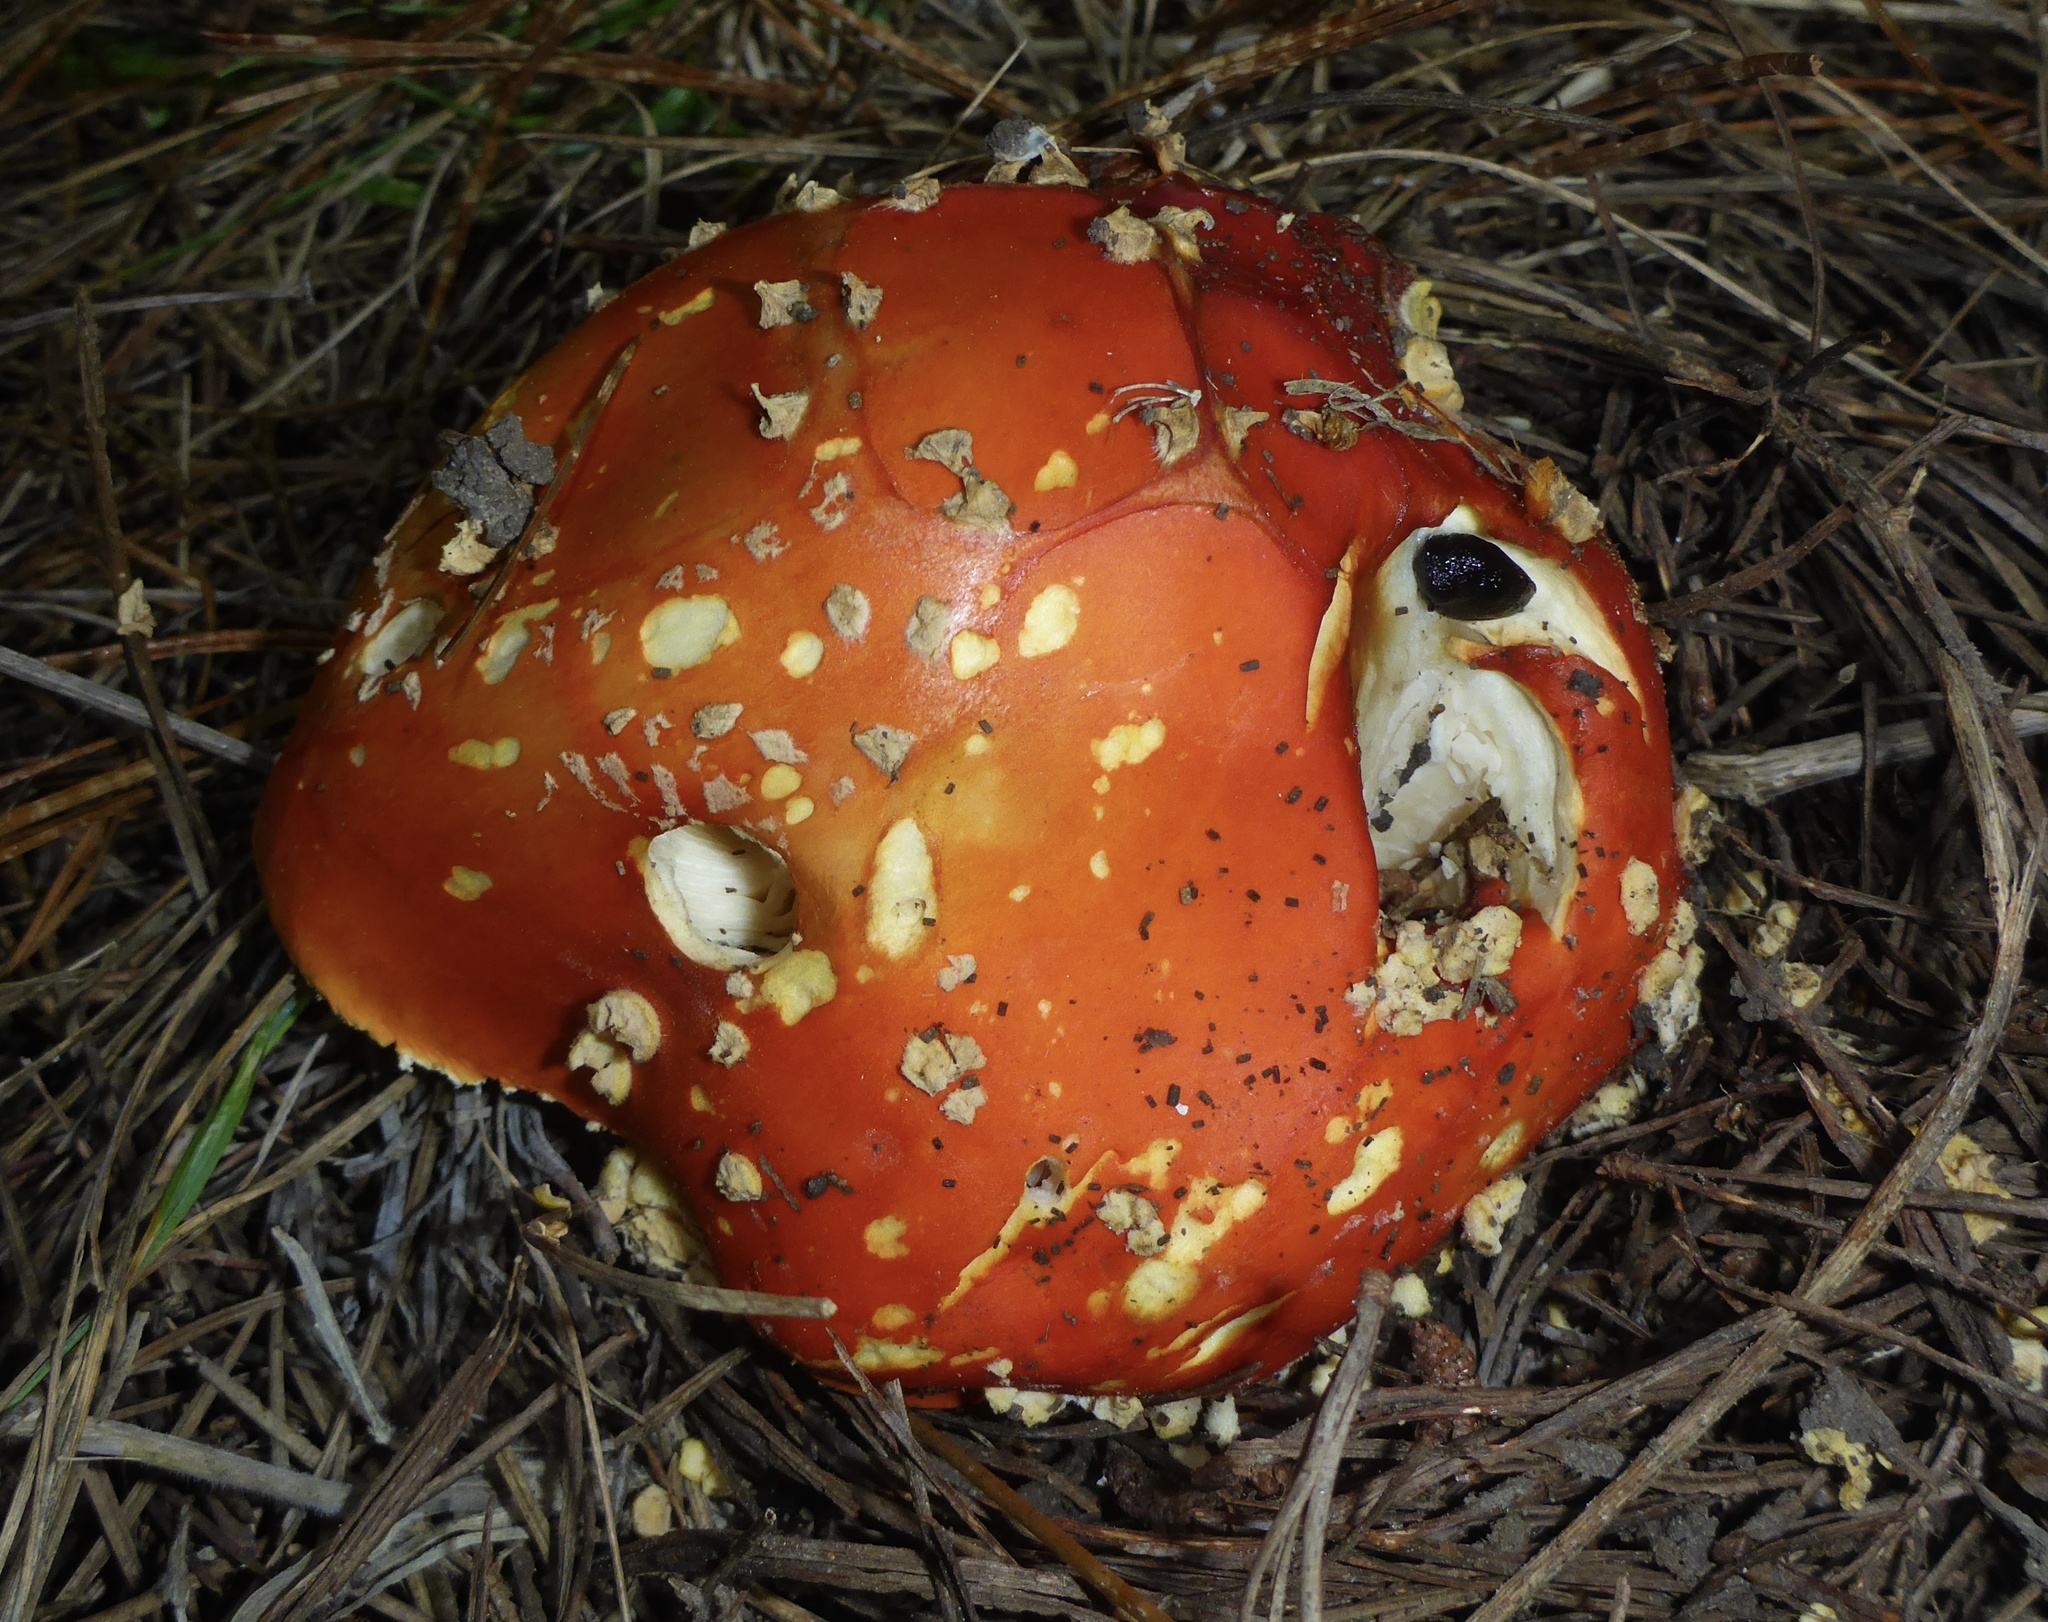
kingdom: Fungi
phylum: Basidiomycota
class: Agaricomycetes
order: Agaricales
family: Amanitaceae
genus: Amanita
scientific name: Amanita muscaria
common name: Fly agaric
